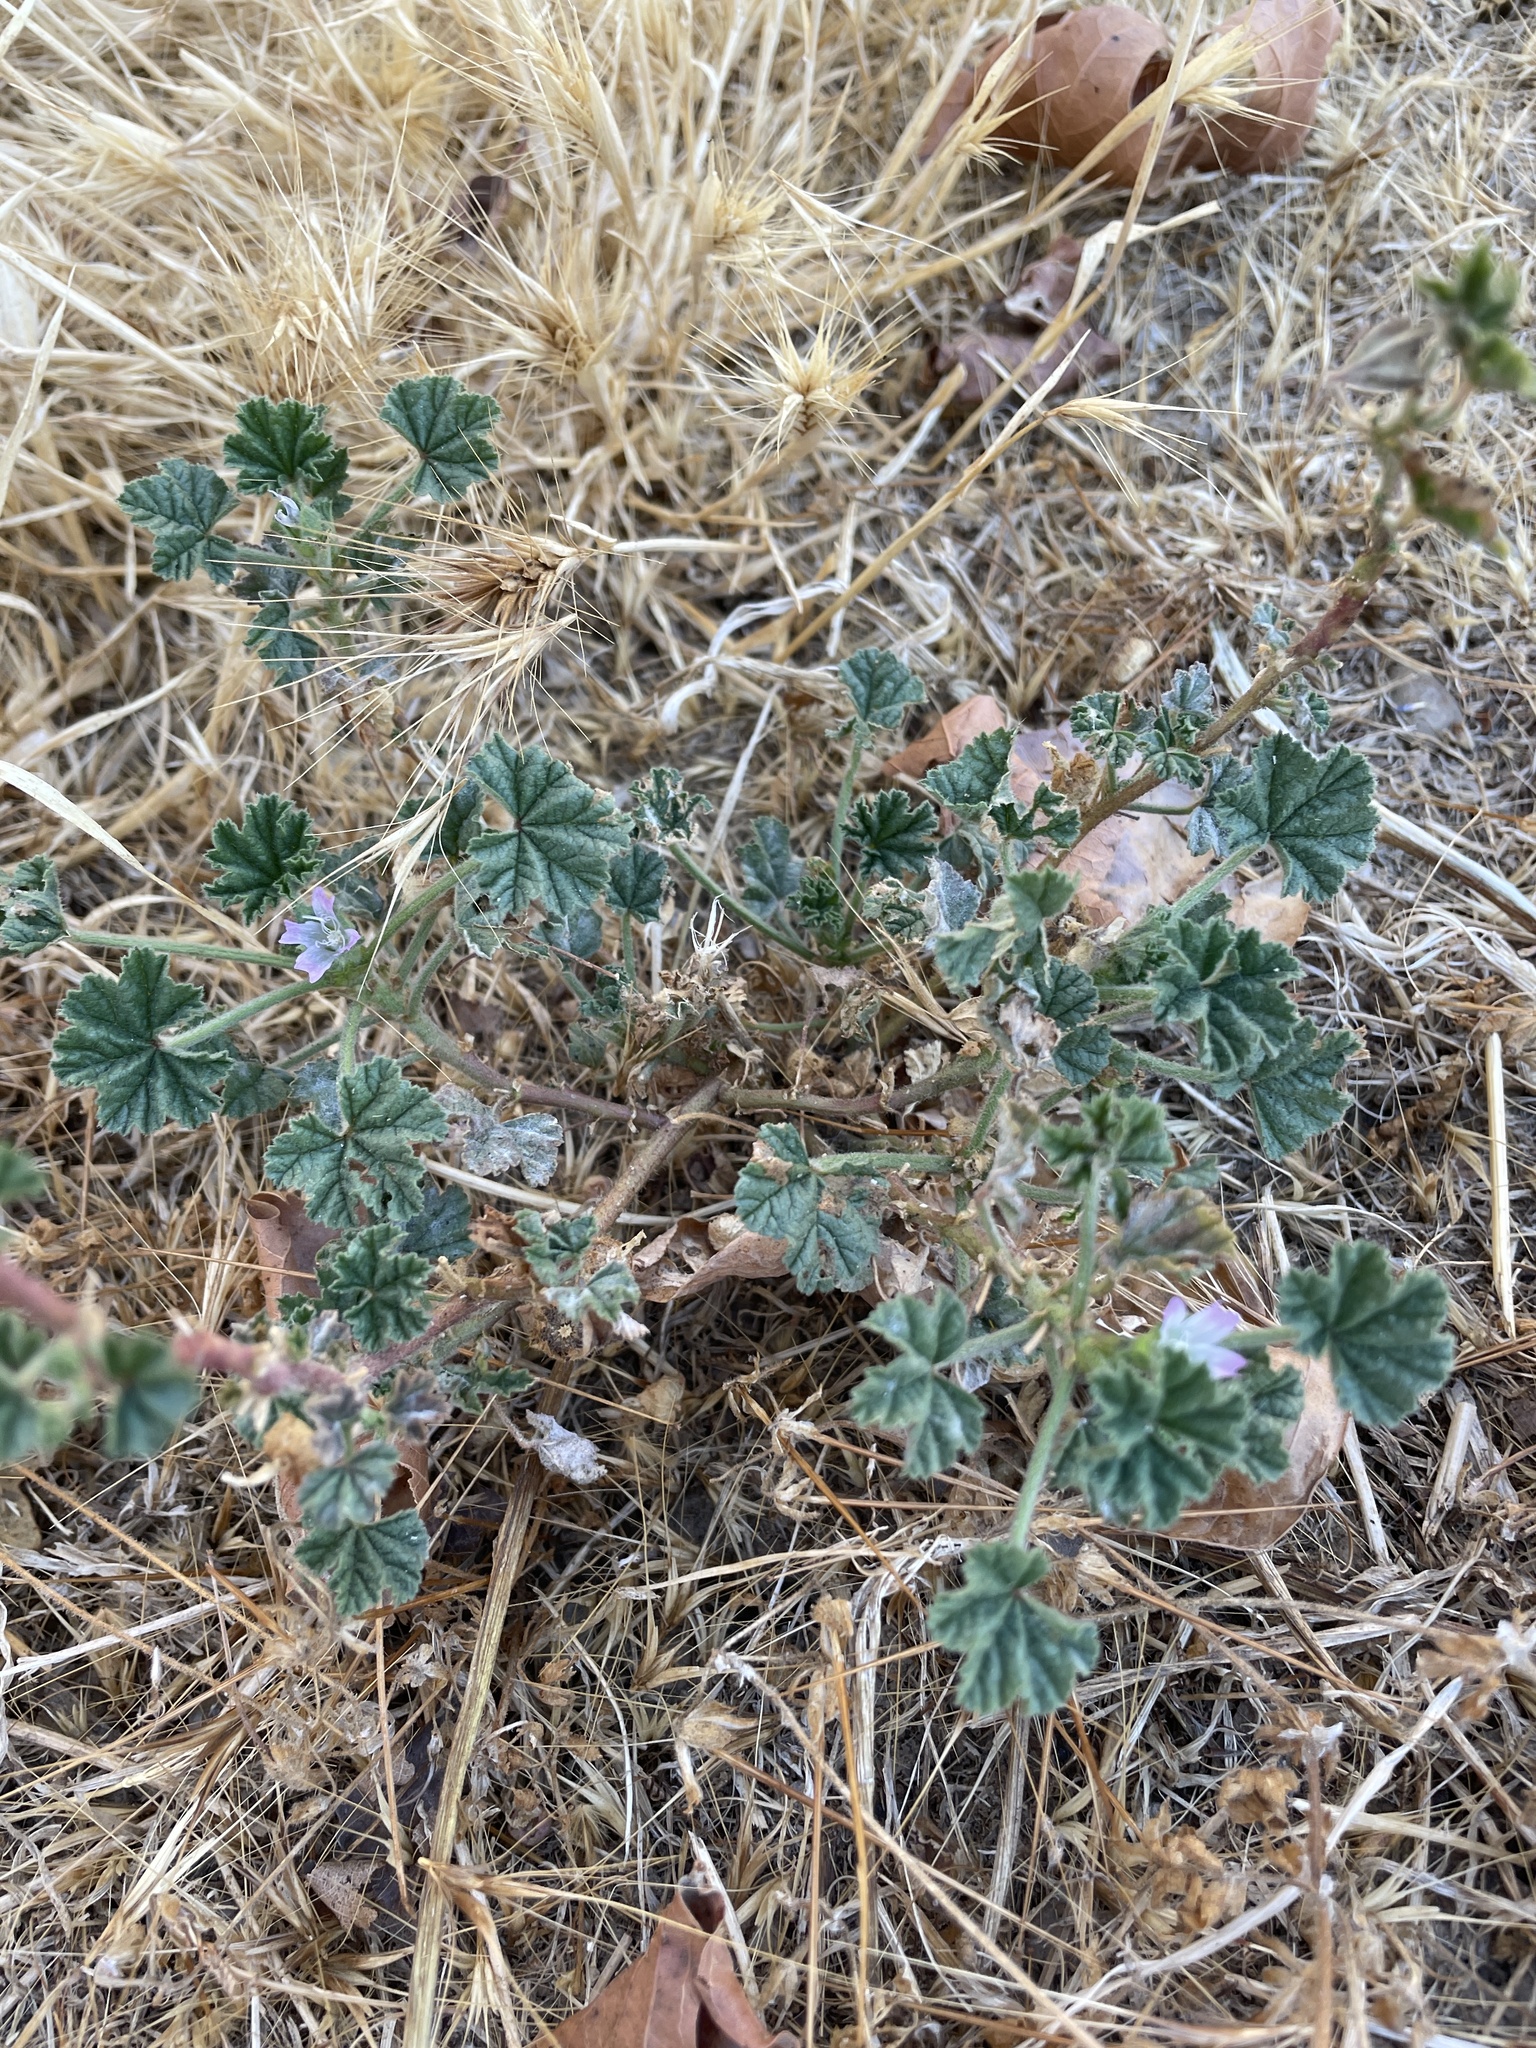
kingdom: Plantae
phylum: Tracheophyta
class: Magnoliopsida
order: Malvales
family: Malvaceae
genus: Malva
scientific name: Malva neglecta
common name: Common mallow
